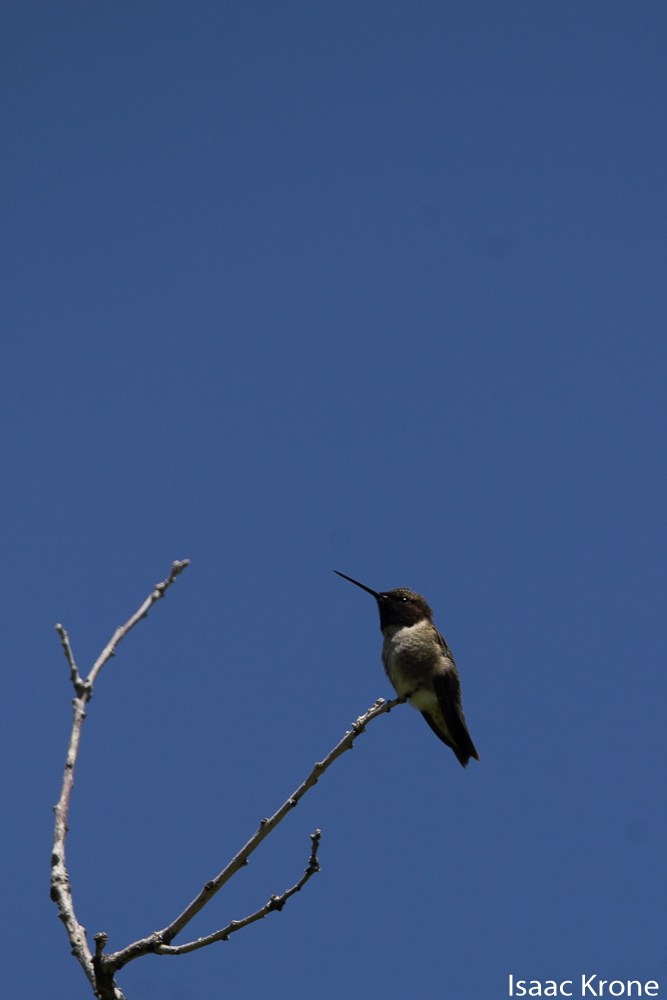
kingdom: Animalia
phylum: Chordata
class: Aves
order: Apodiformes
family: Trochilidae
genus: Archilochus
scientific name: Archilochus alexandri
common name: Black-chinned hummingbird
